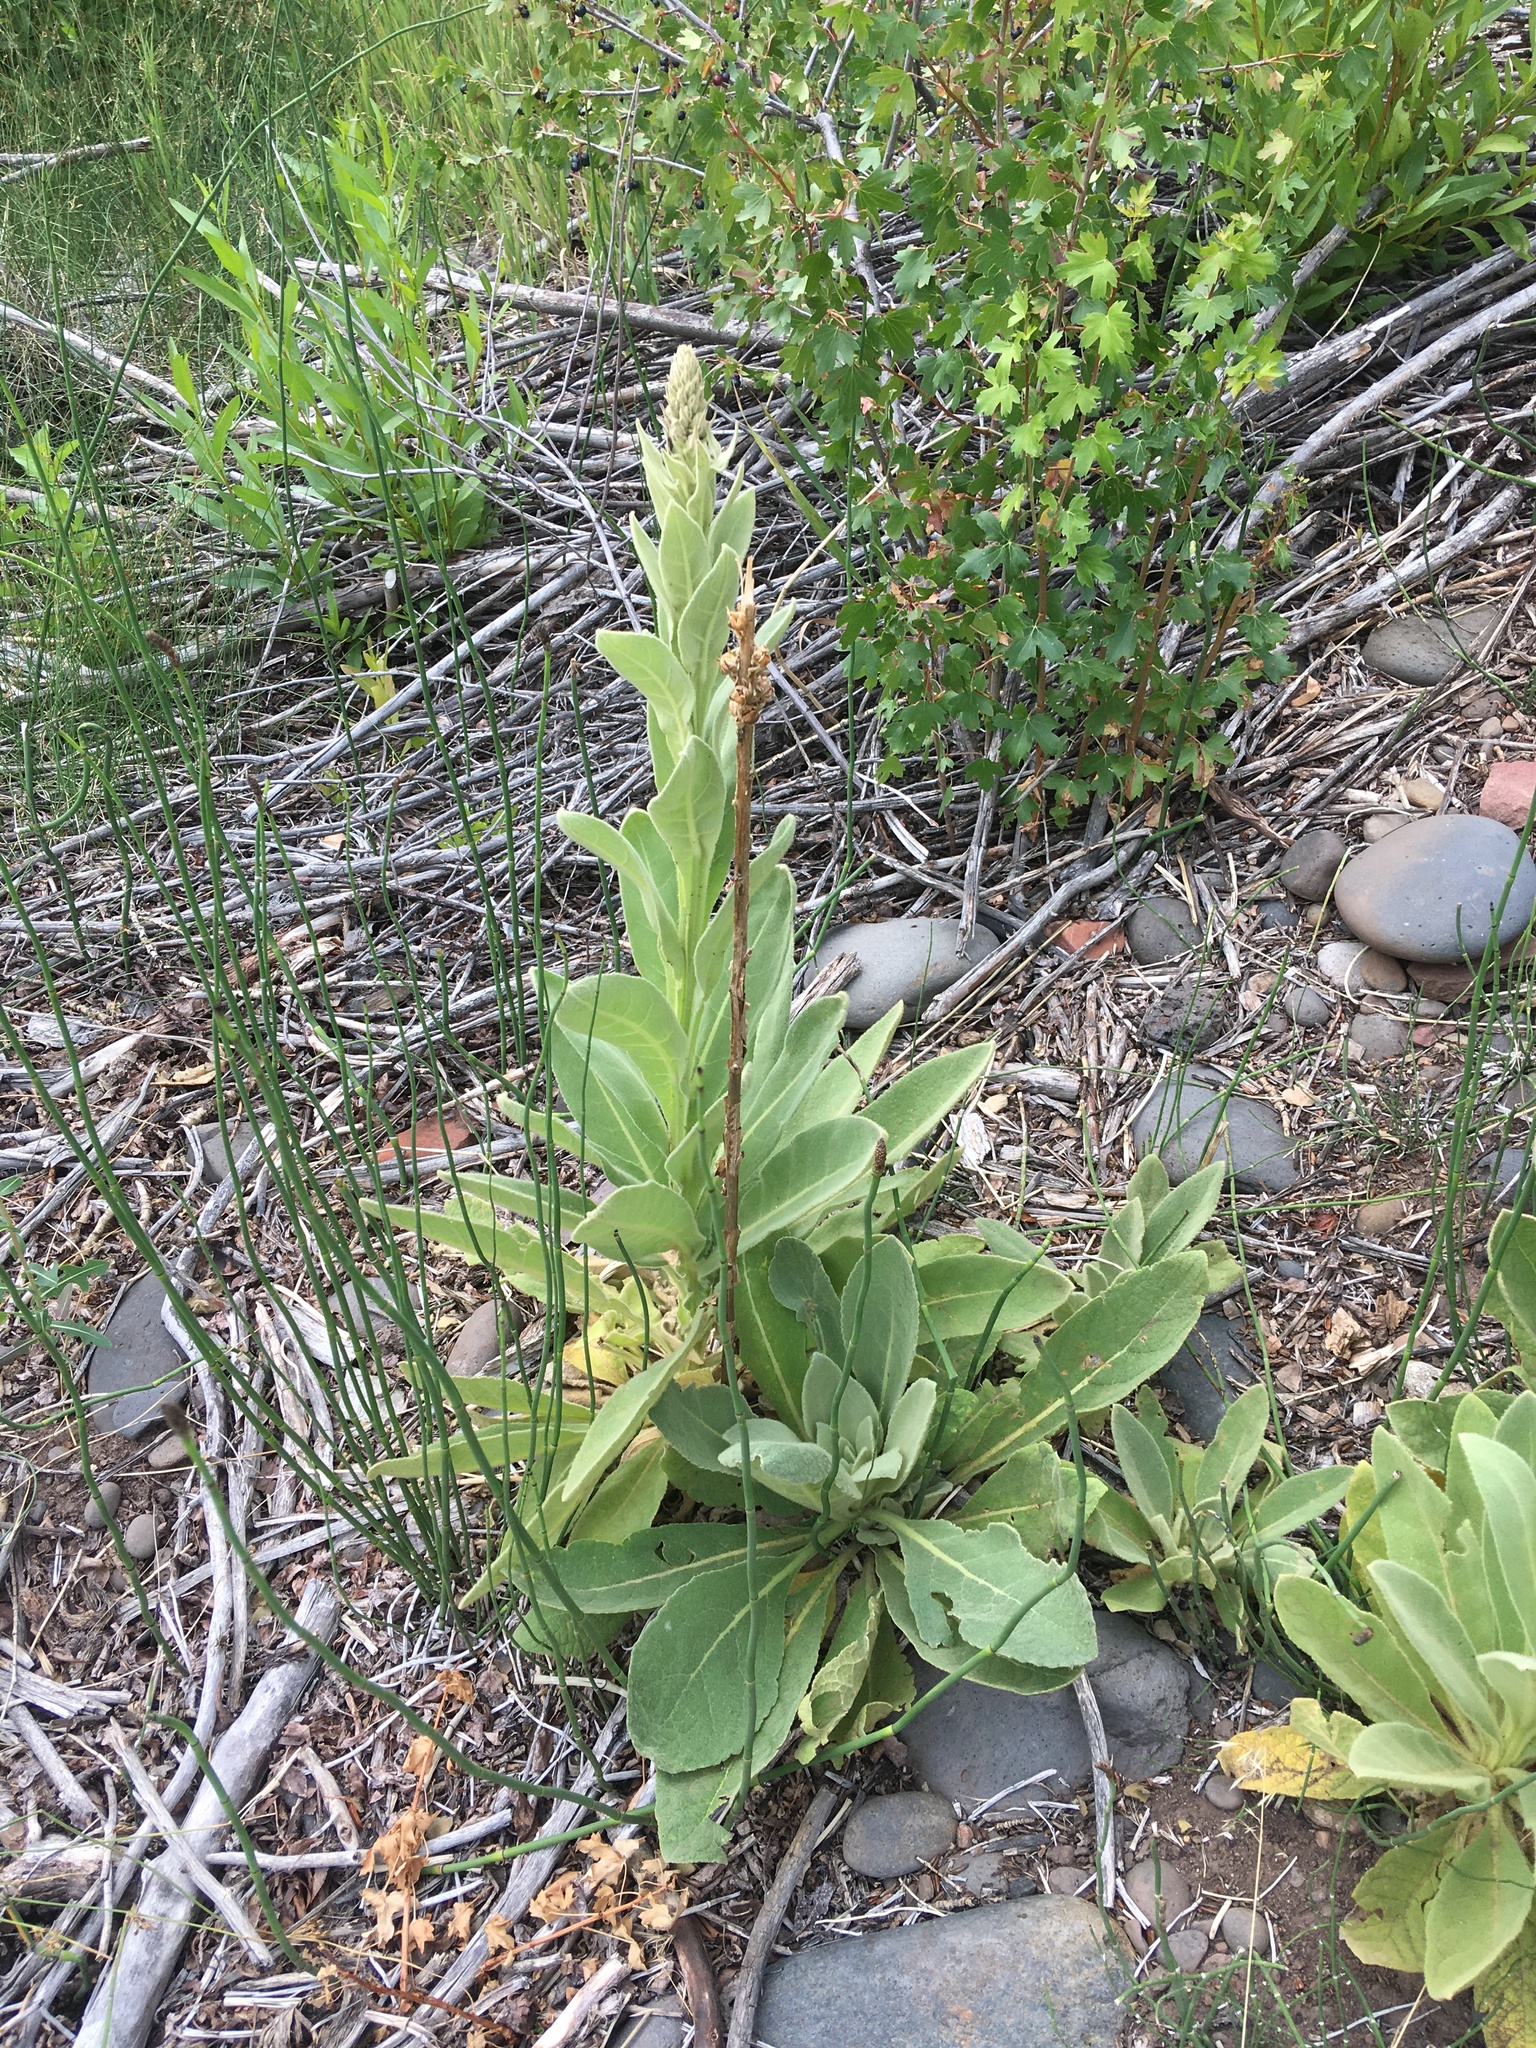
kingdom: Plantae
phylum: Tracheophyta
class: Magnoliopsida
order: Lamiales
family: Scrophulariaceae
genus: Verbascum
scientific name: Verbascum thapsus
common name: Common mullein
